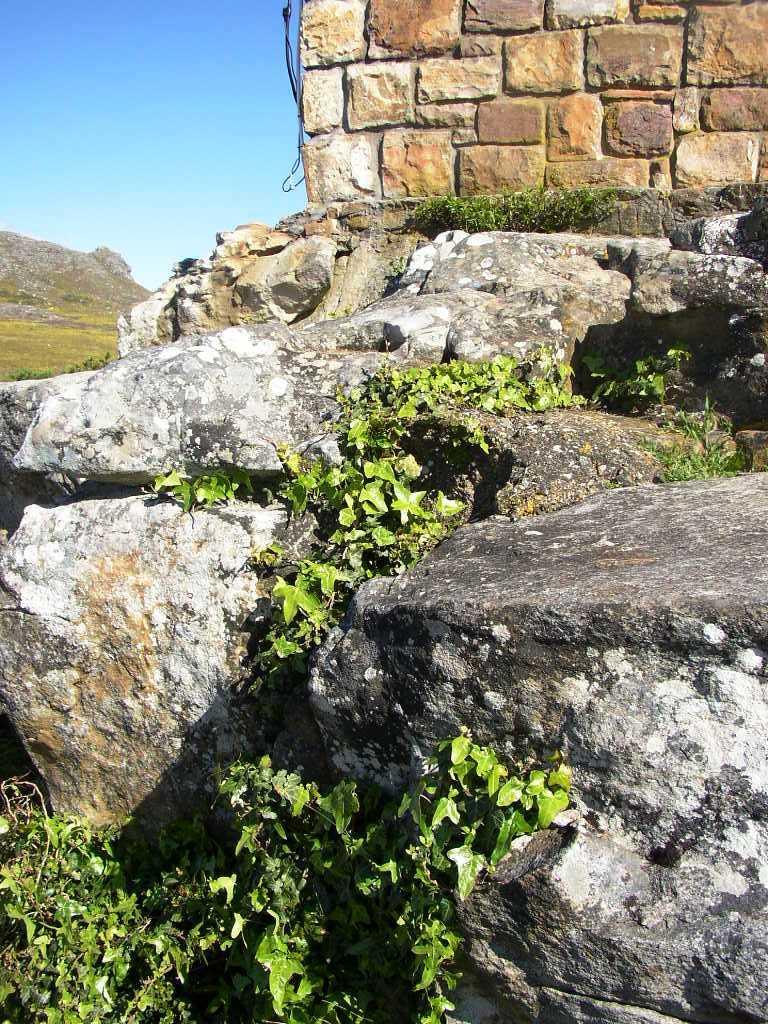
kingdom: Plantae
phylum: Tracheophyta
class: Magnoliopsida
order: Apiales
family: Araliaceae
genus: Hedera
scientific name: Hedera helix
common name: Ivy
